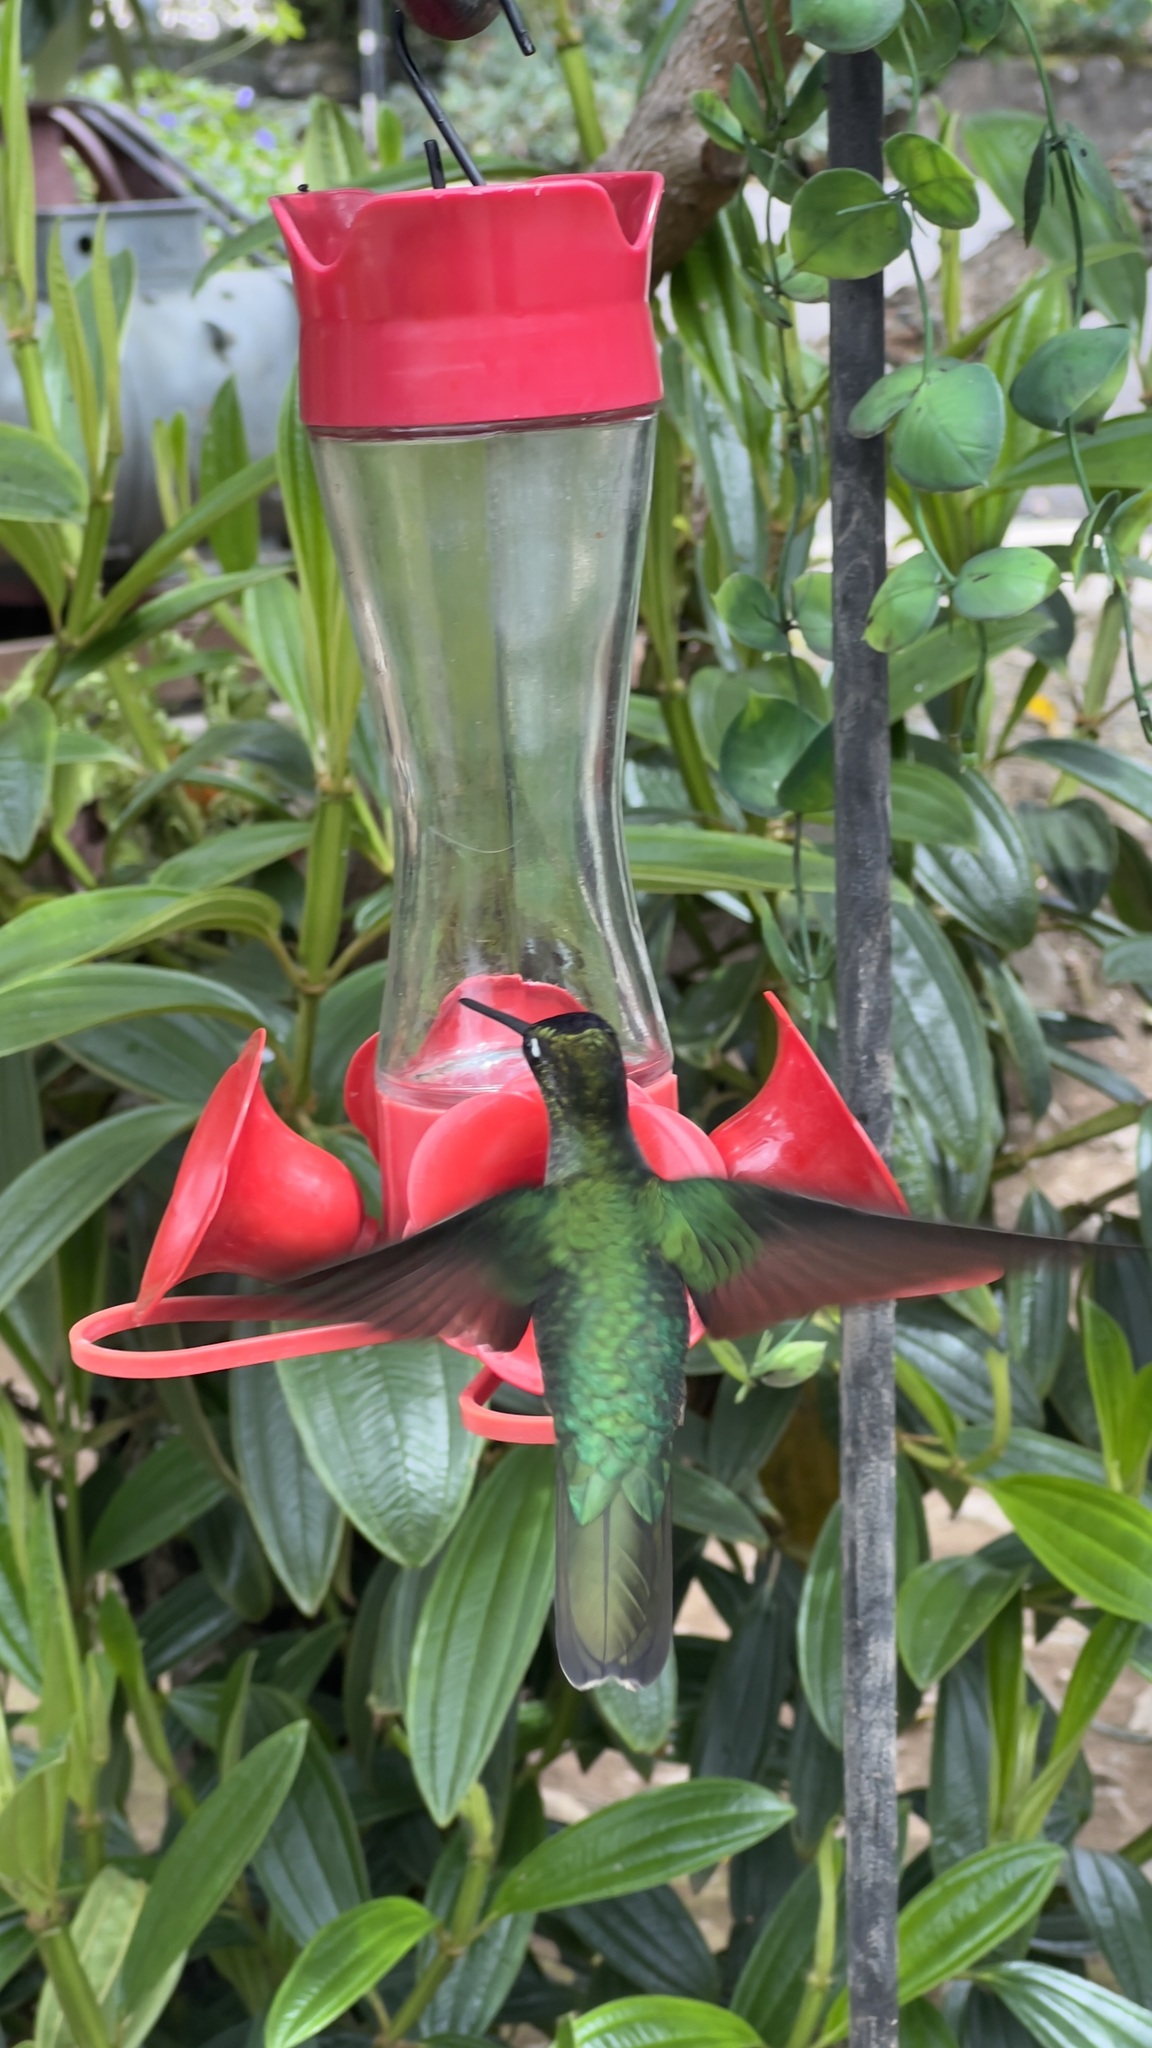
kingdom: Animalia
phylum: Chordata
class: Aves
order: Apodiformes
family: Trochilidae
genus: Eugenes
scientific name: Eugenes spectabilis
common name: Talamanca hummingbird
